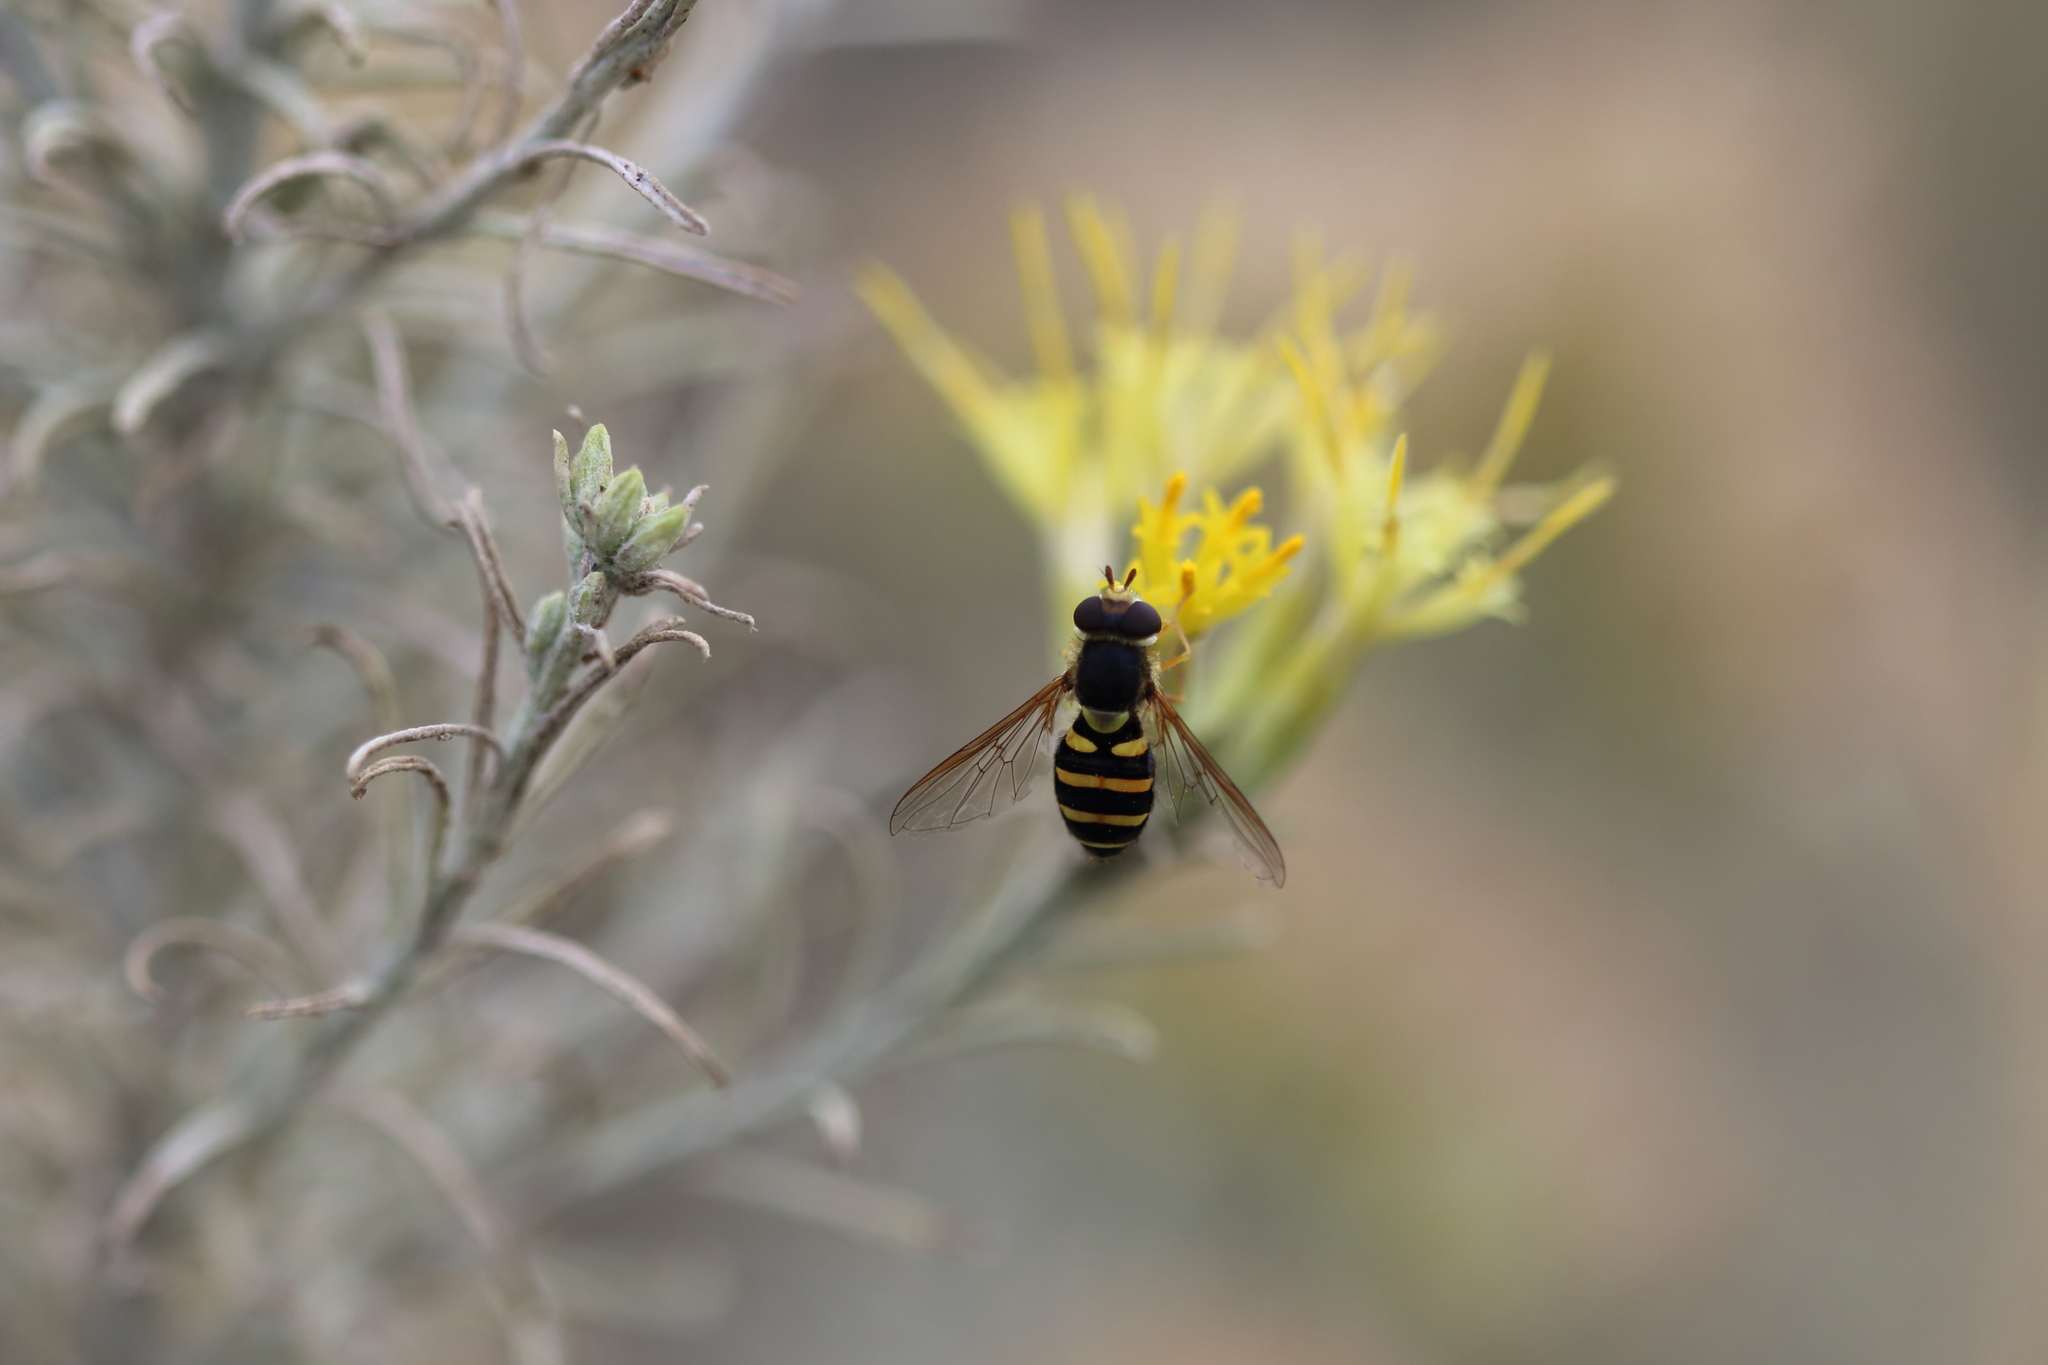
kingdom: Animalia
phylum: Arthropoda
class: Insecta
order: Diptera
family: Syrphidae
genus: Syrphus
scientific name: Syrphus opinator
